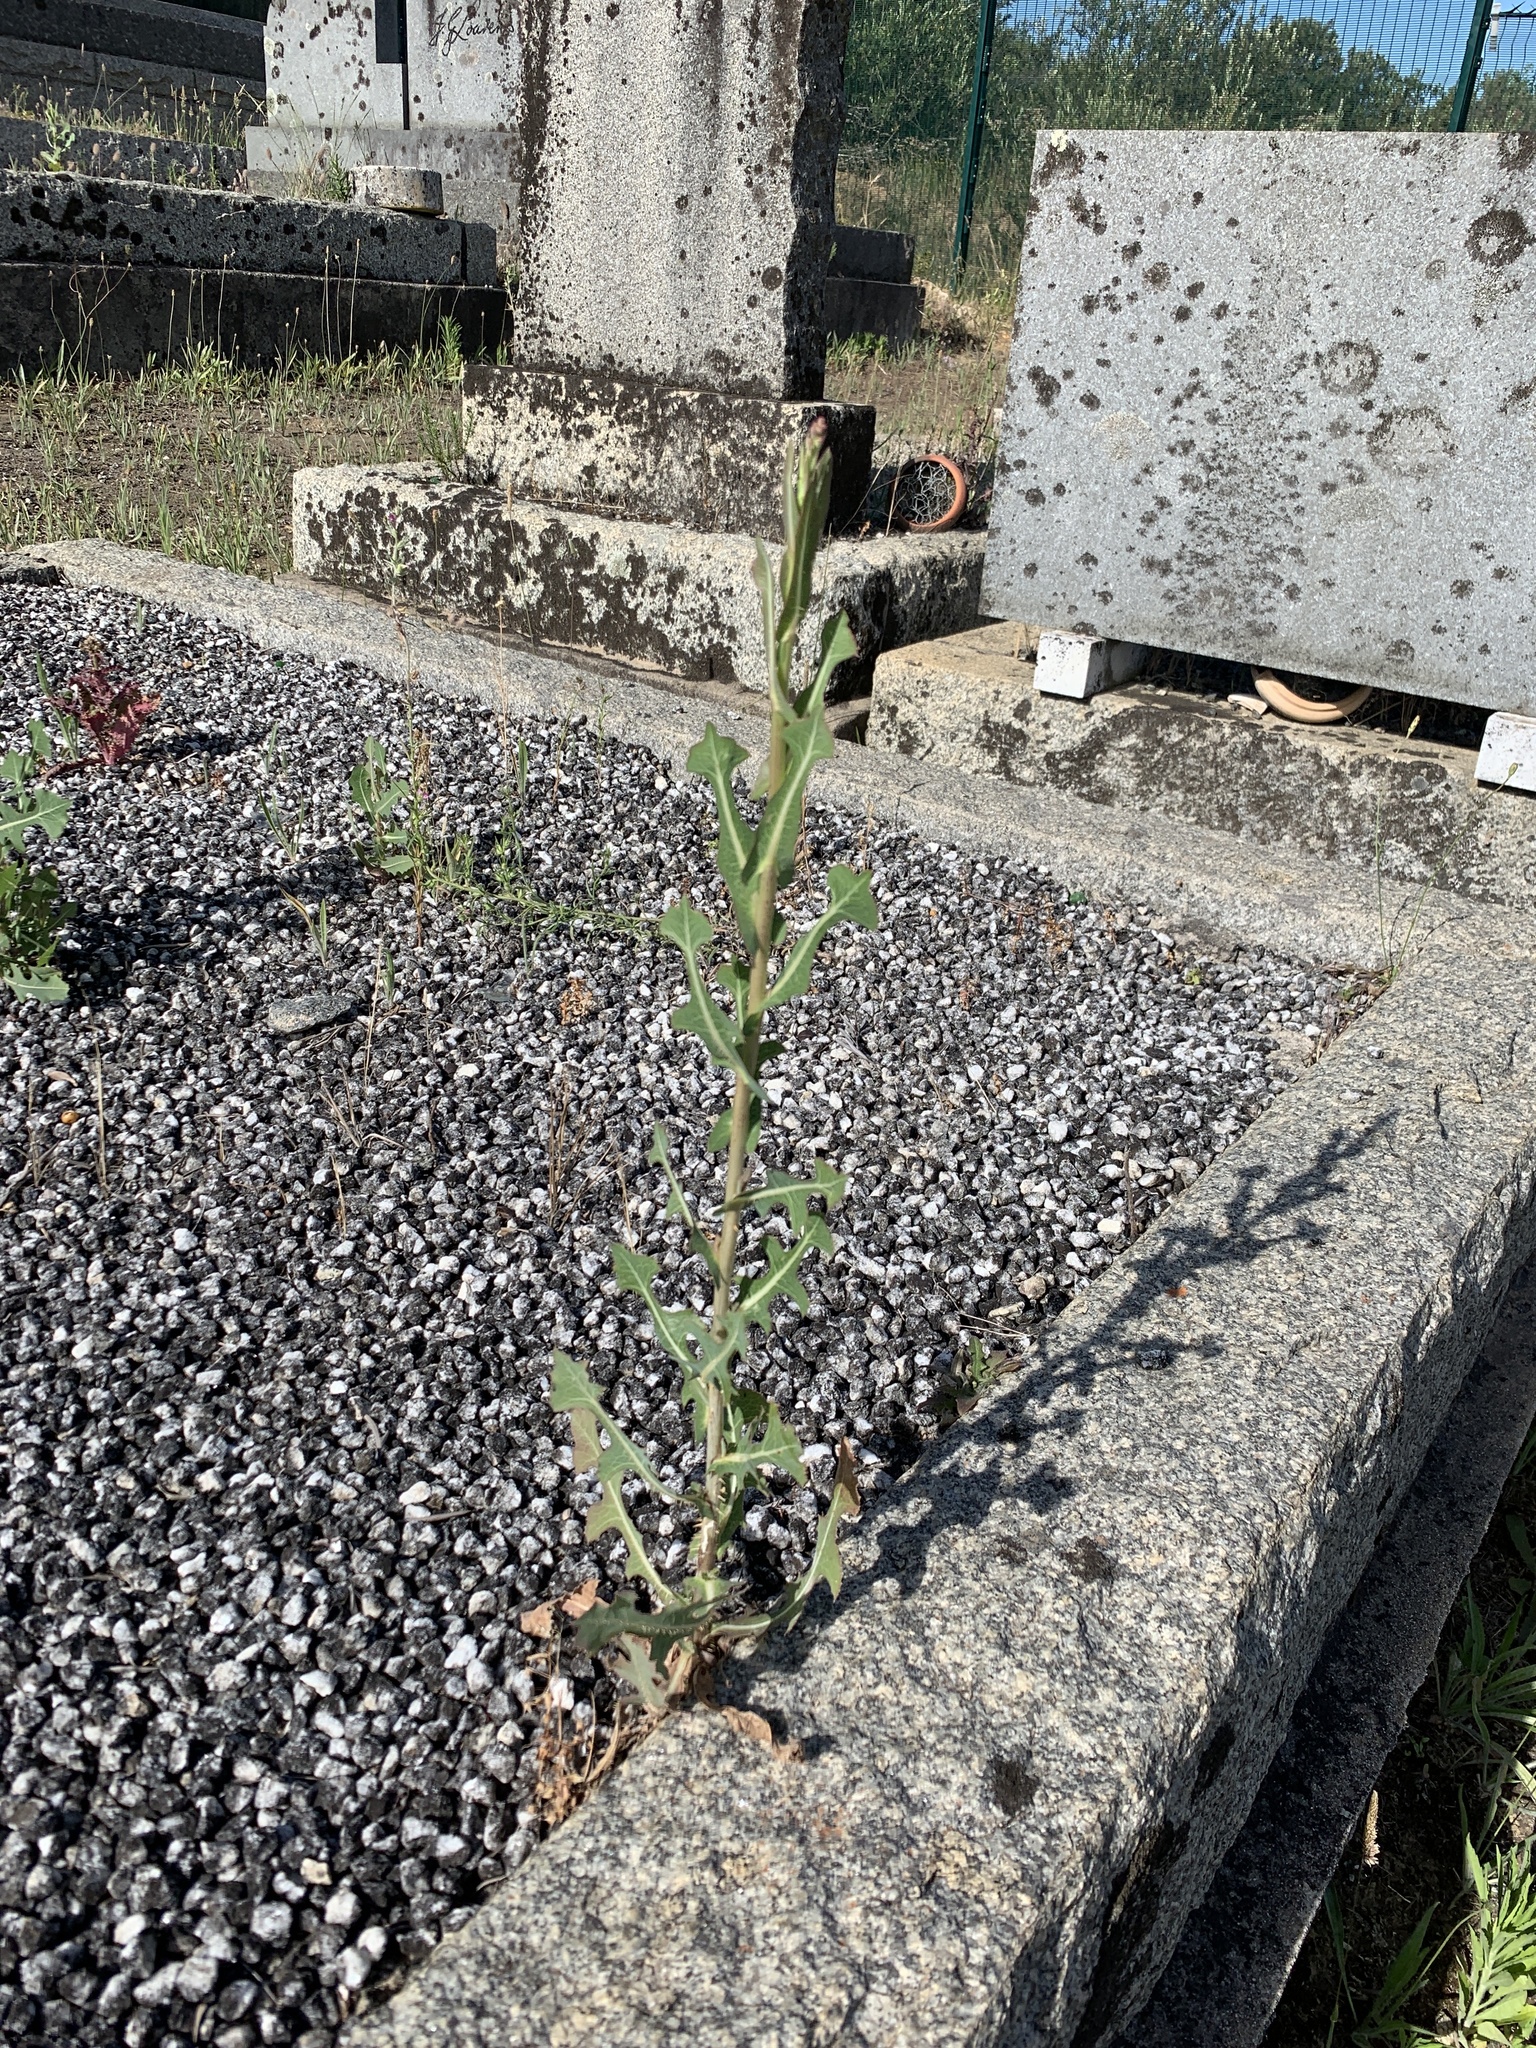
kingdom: Plantae
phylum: Tracheophyta
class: Magnoliopsida
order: Asterales
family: Asteraceae
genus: Lactuca
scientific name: Lactuca serriola
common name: Prickly lettuce
